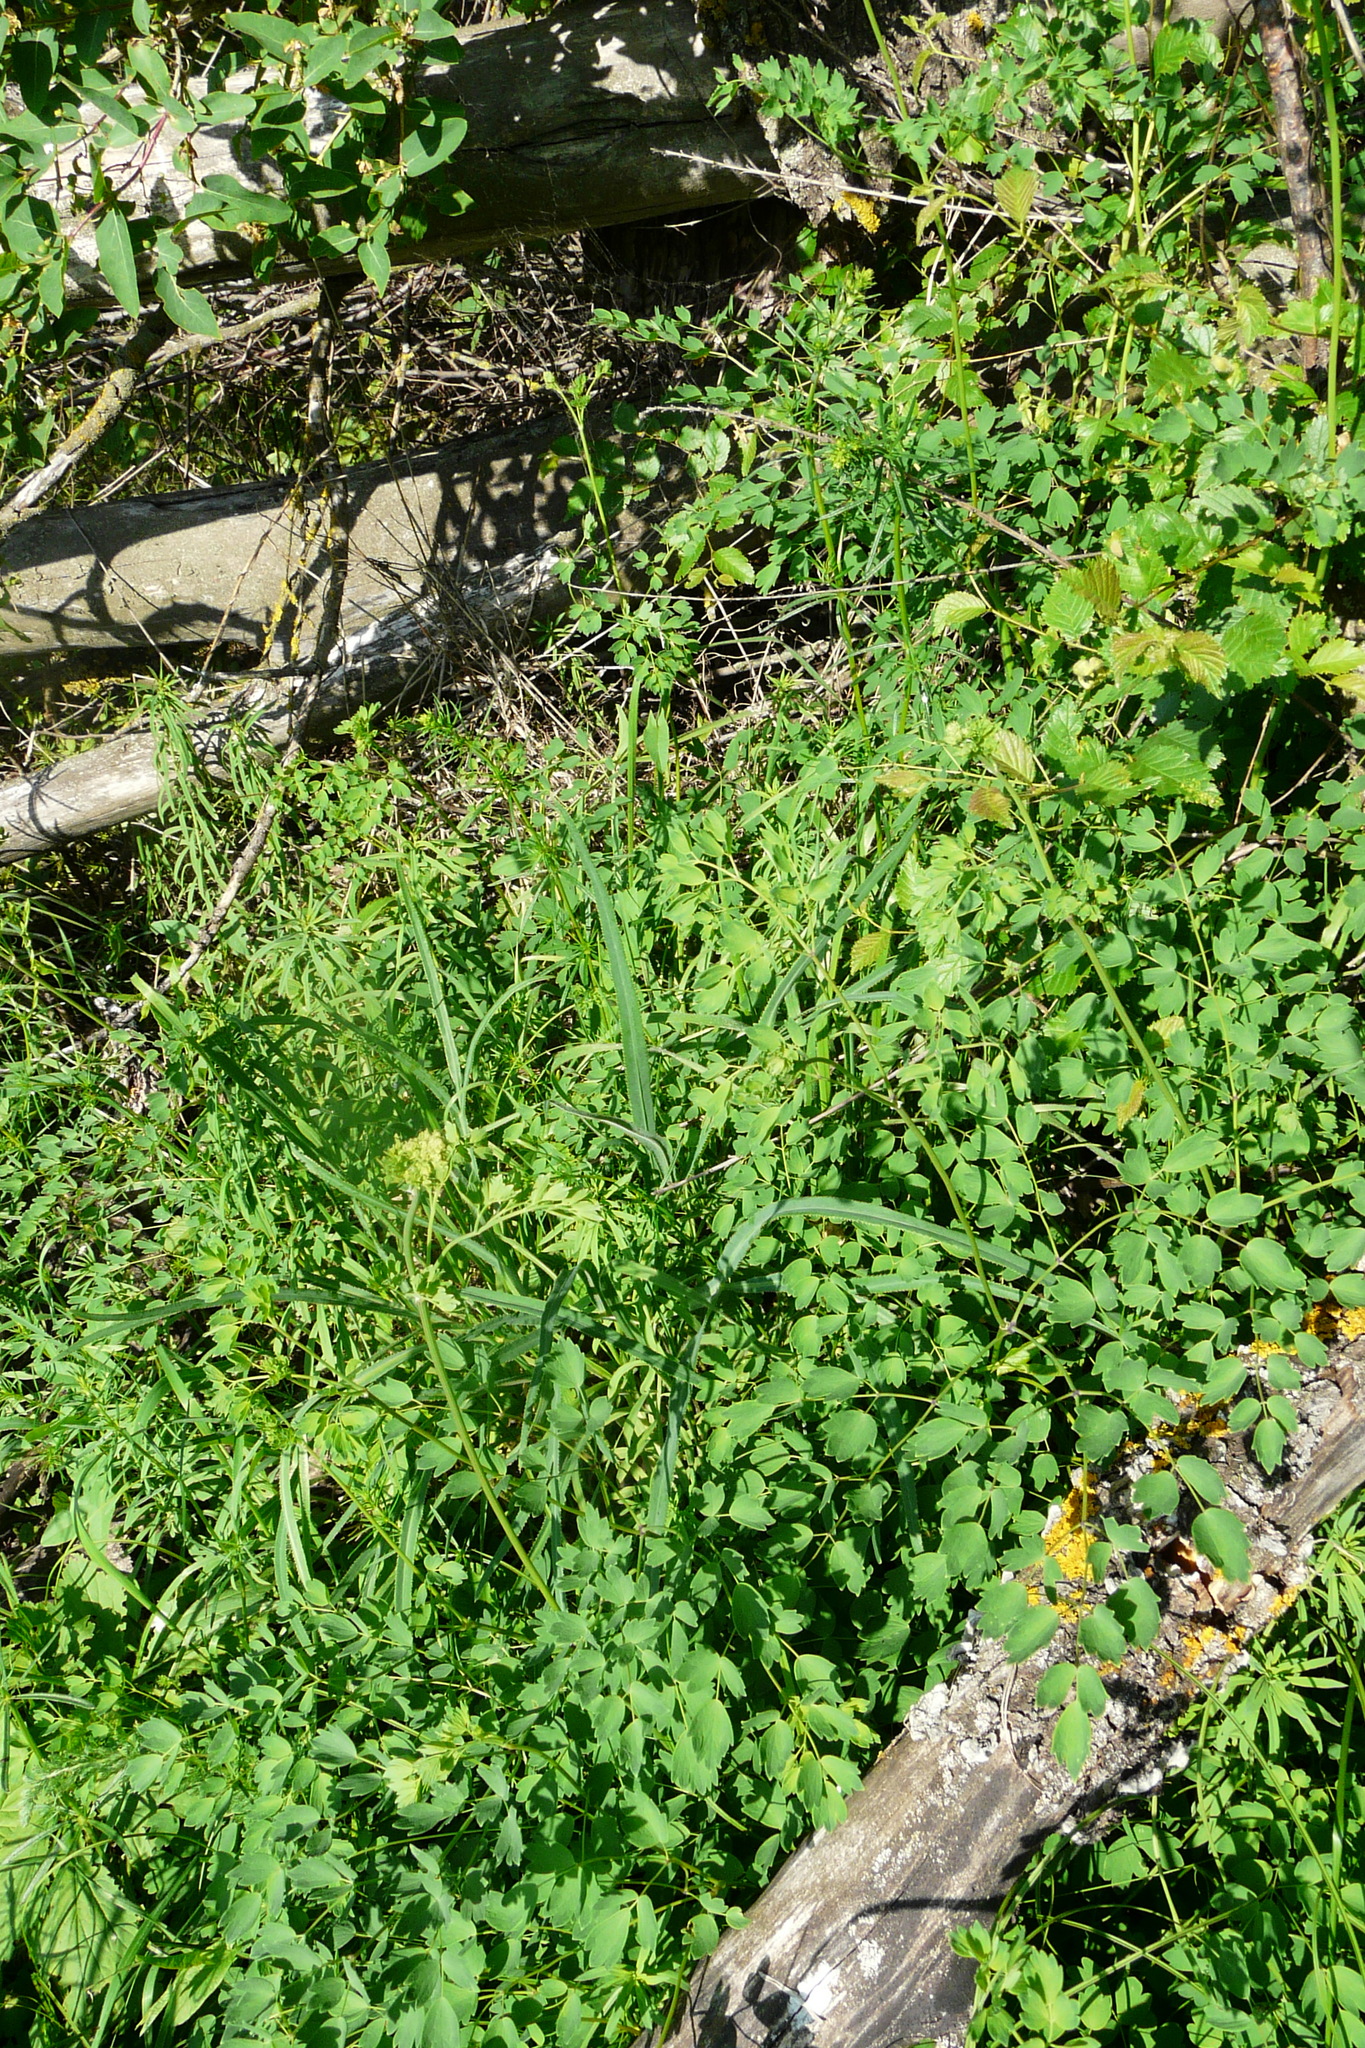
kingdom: Plantae
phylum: Tracheophyta
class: Magnoliopsida
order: Ranunculales
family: Ranunculaceae
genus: Thalictrum
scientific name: Thalictrum minus
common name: Lesser meadow-rue
